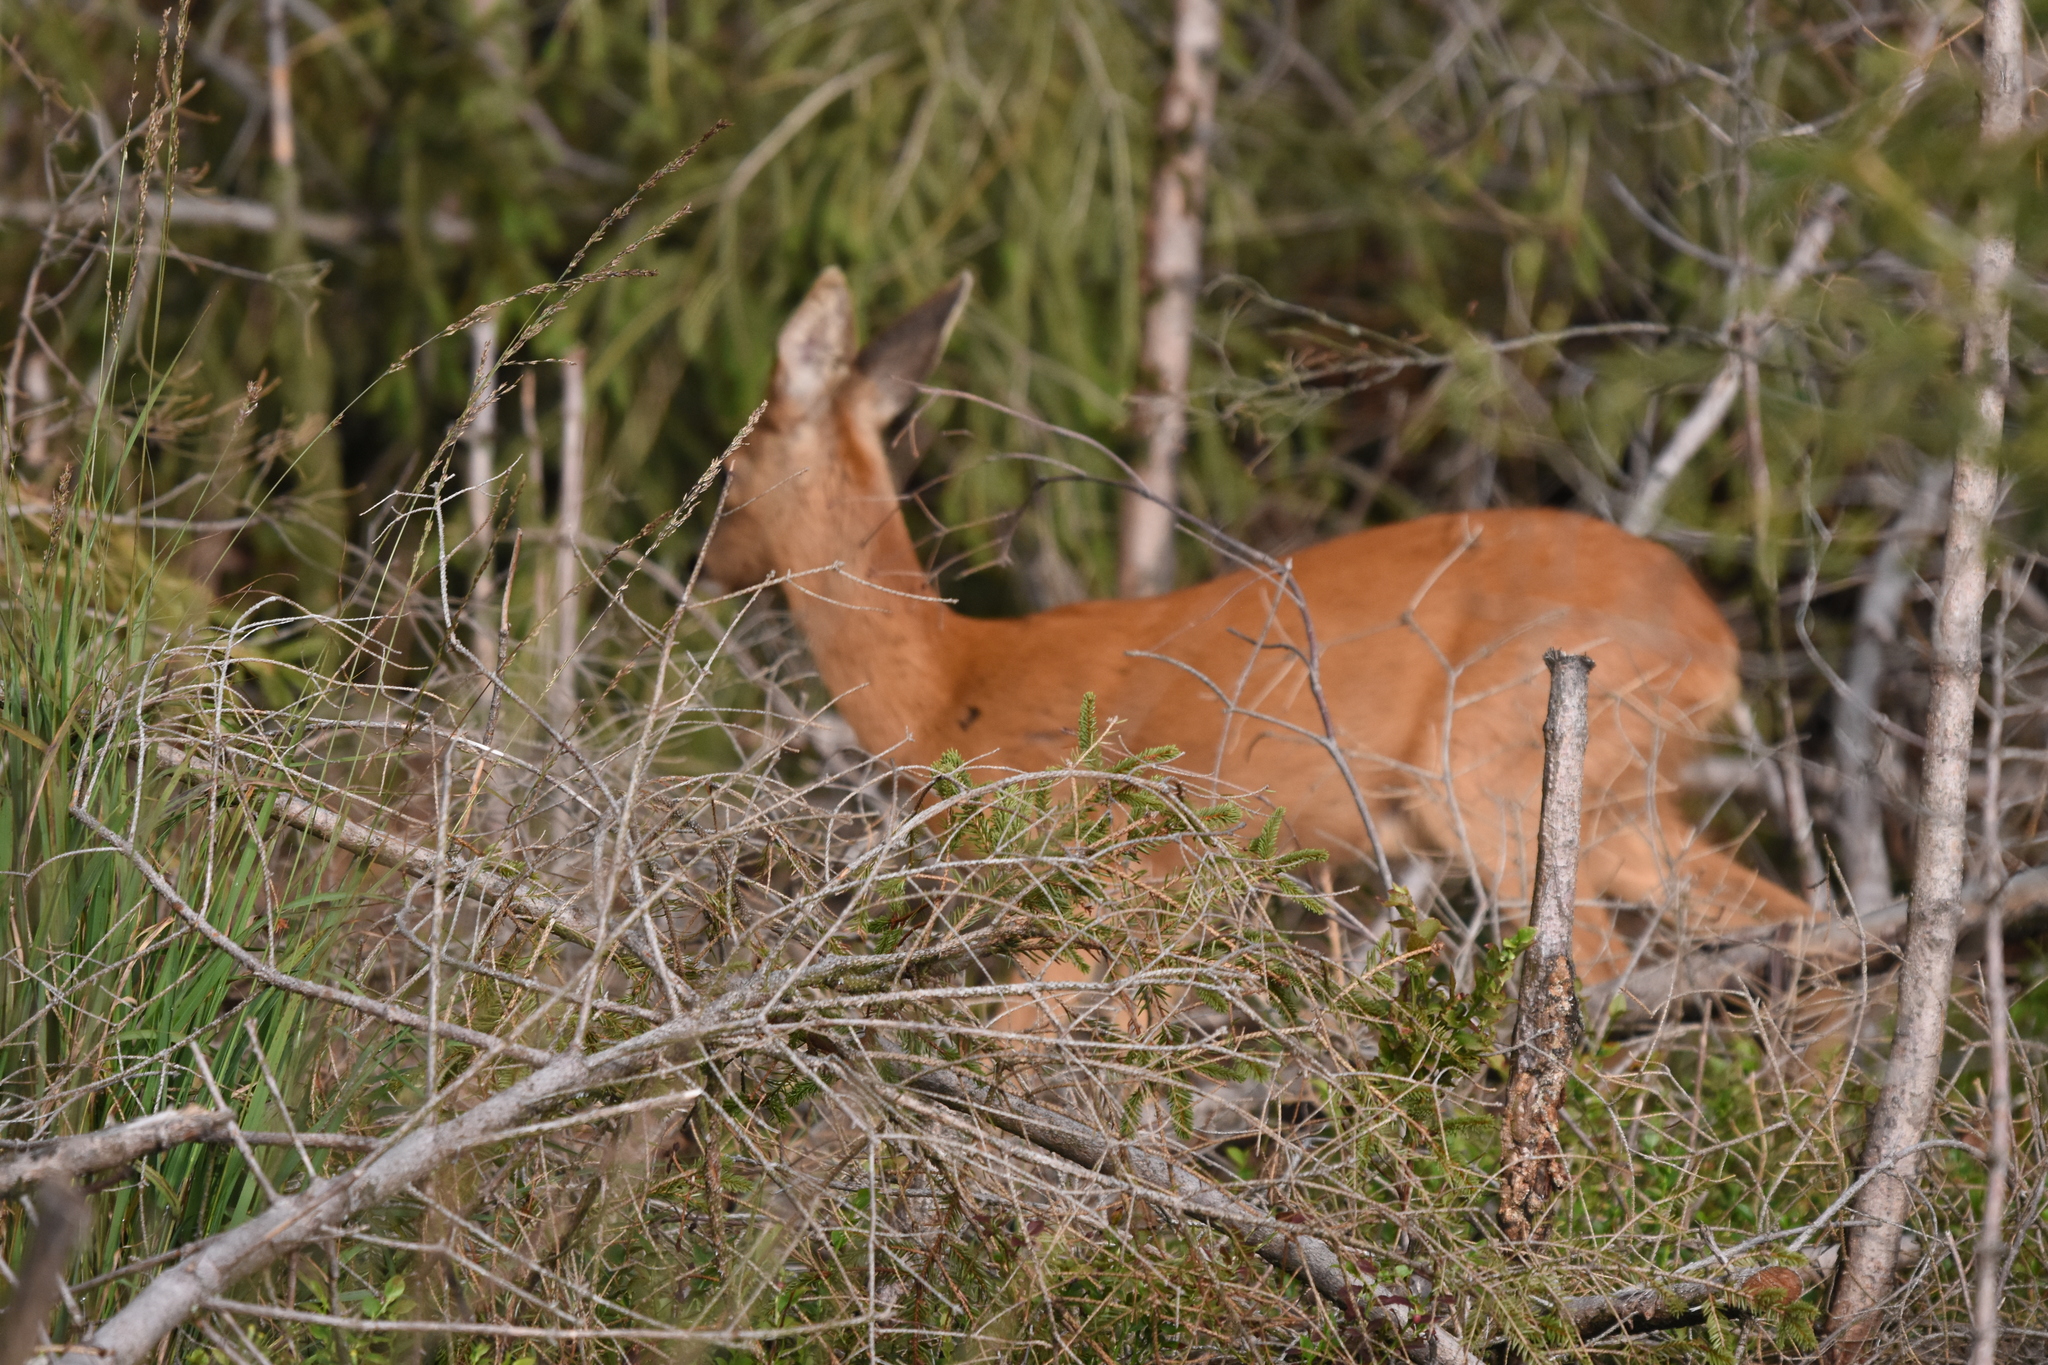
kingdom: Animalia
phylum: Chordata
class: Mammalia
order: Artiodactyla
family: Cervidae
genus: Capreolus
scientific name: Capreolus capreolus
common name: Western roe deer
